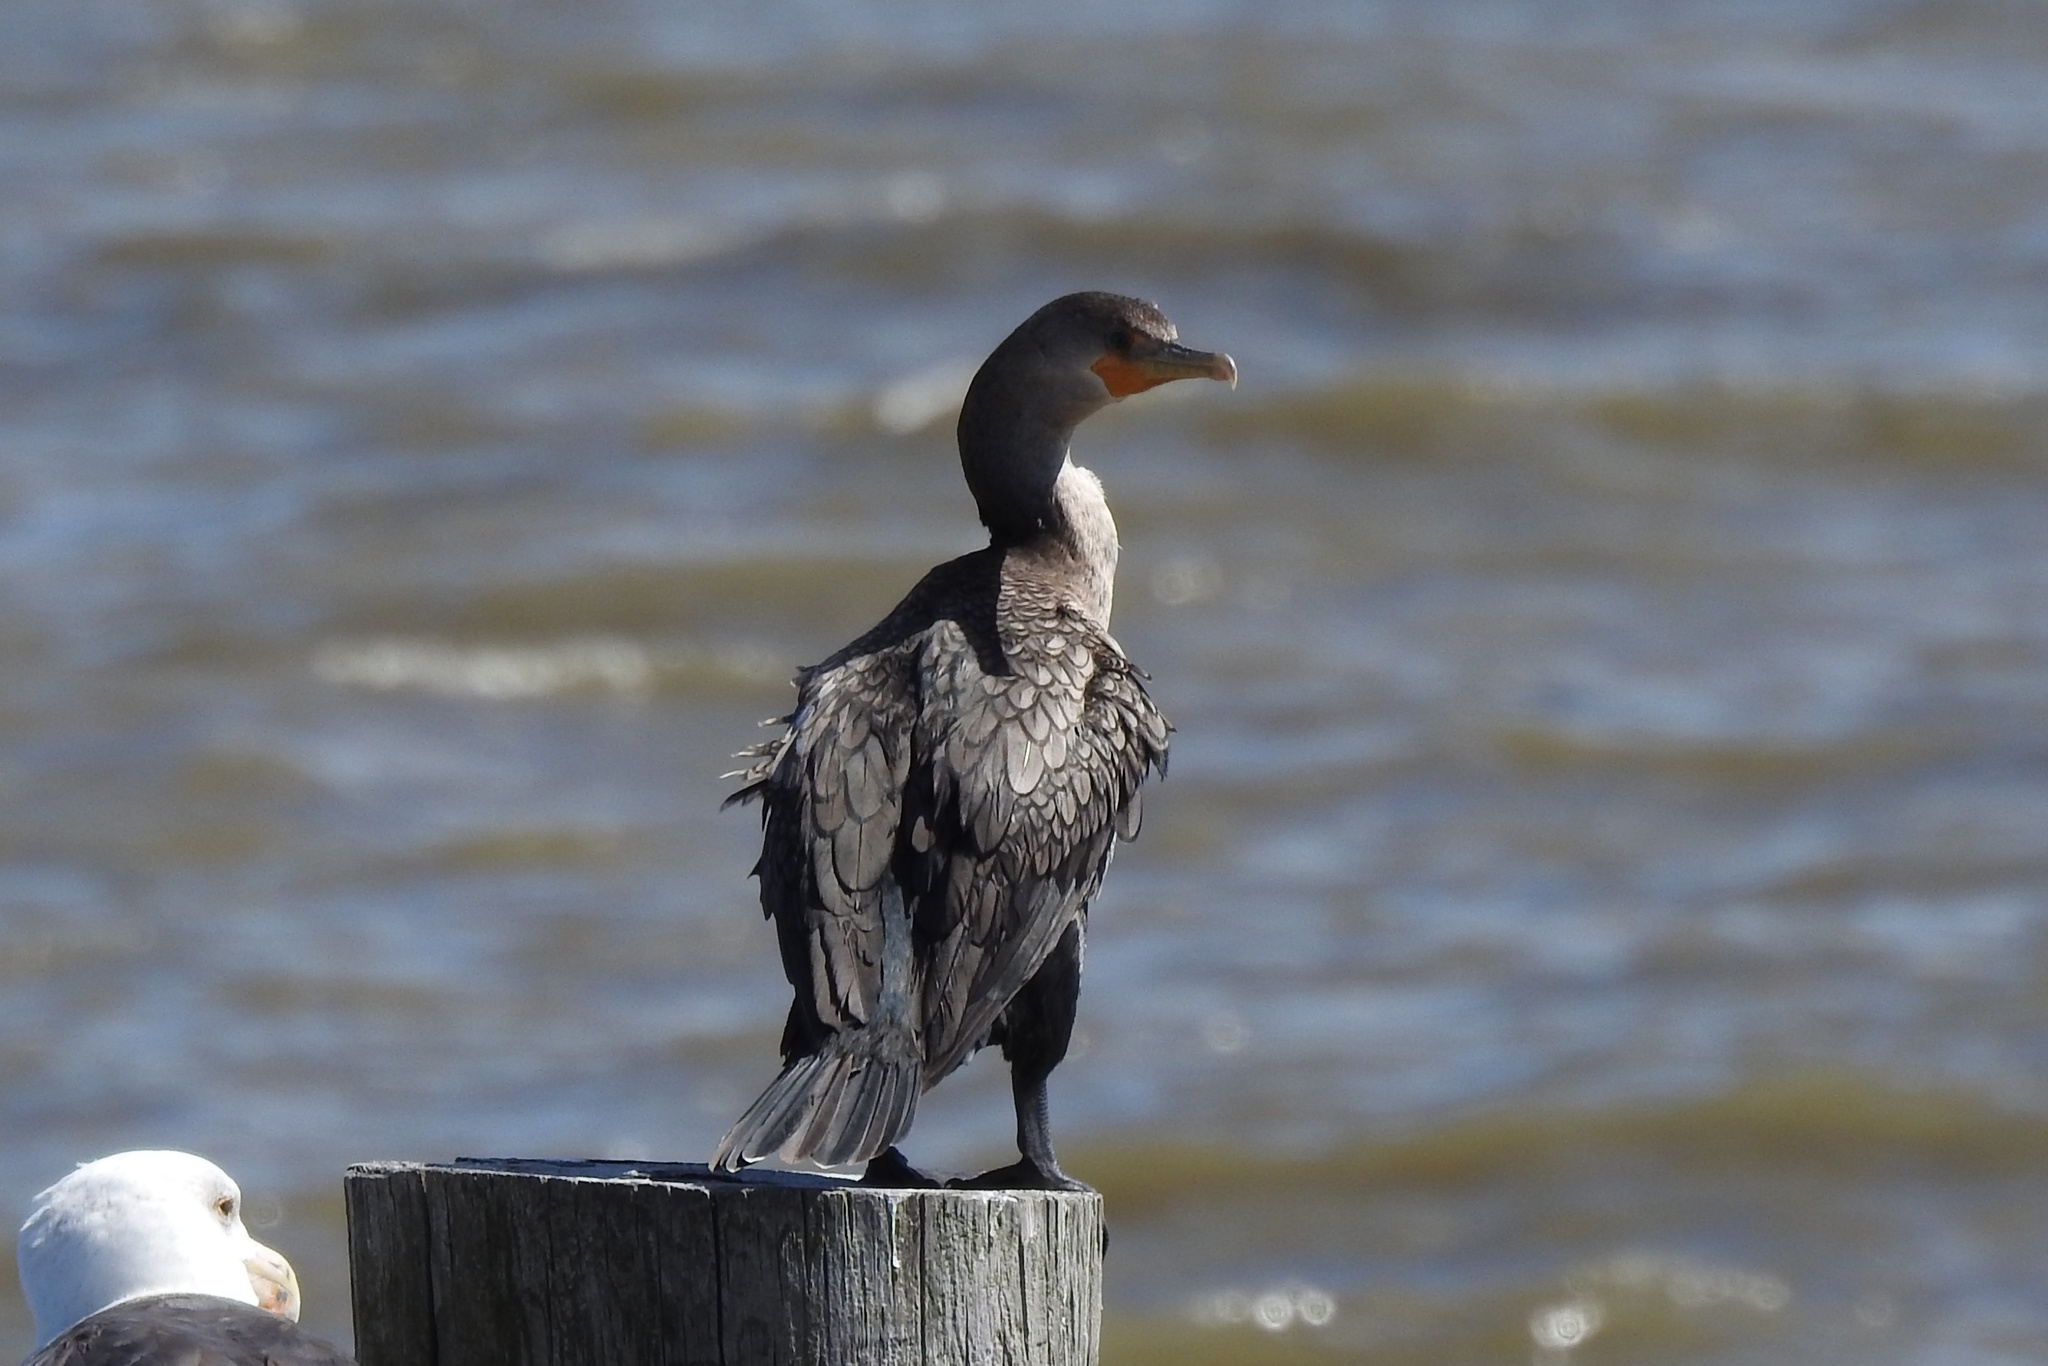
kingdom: Animalia
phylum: Chordata
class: Aves
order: Suliformes
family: Phalacrocoracidae
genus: Phalacrocorax
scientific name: Phalacrocorax auritus
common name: Double-crested cormorant
